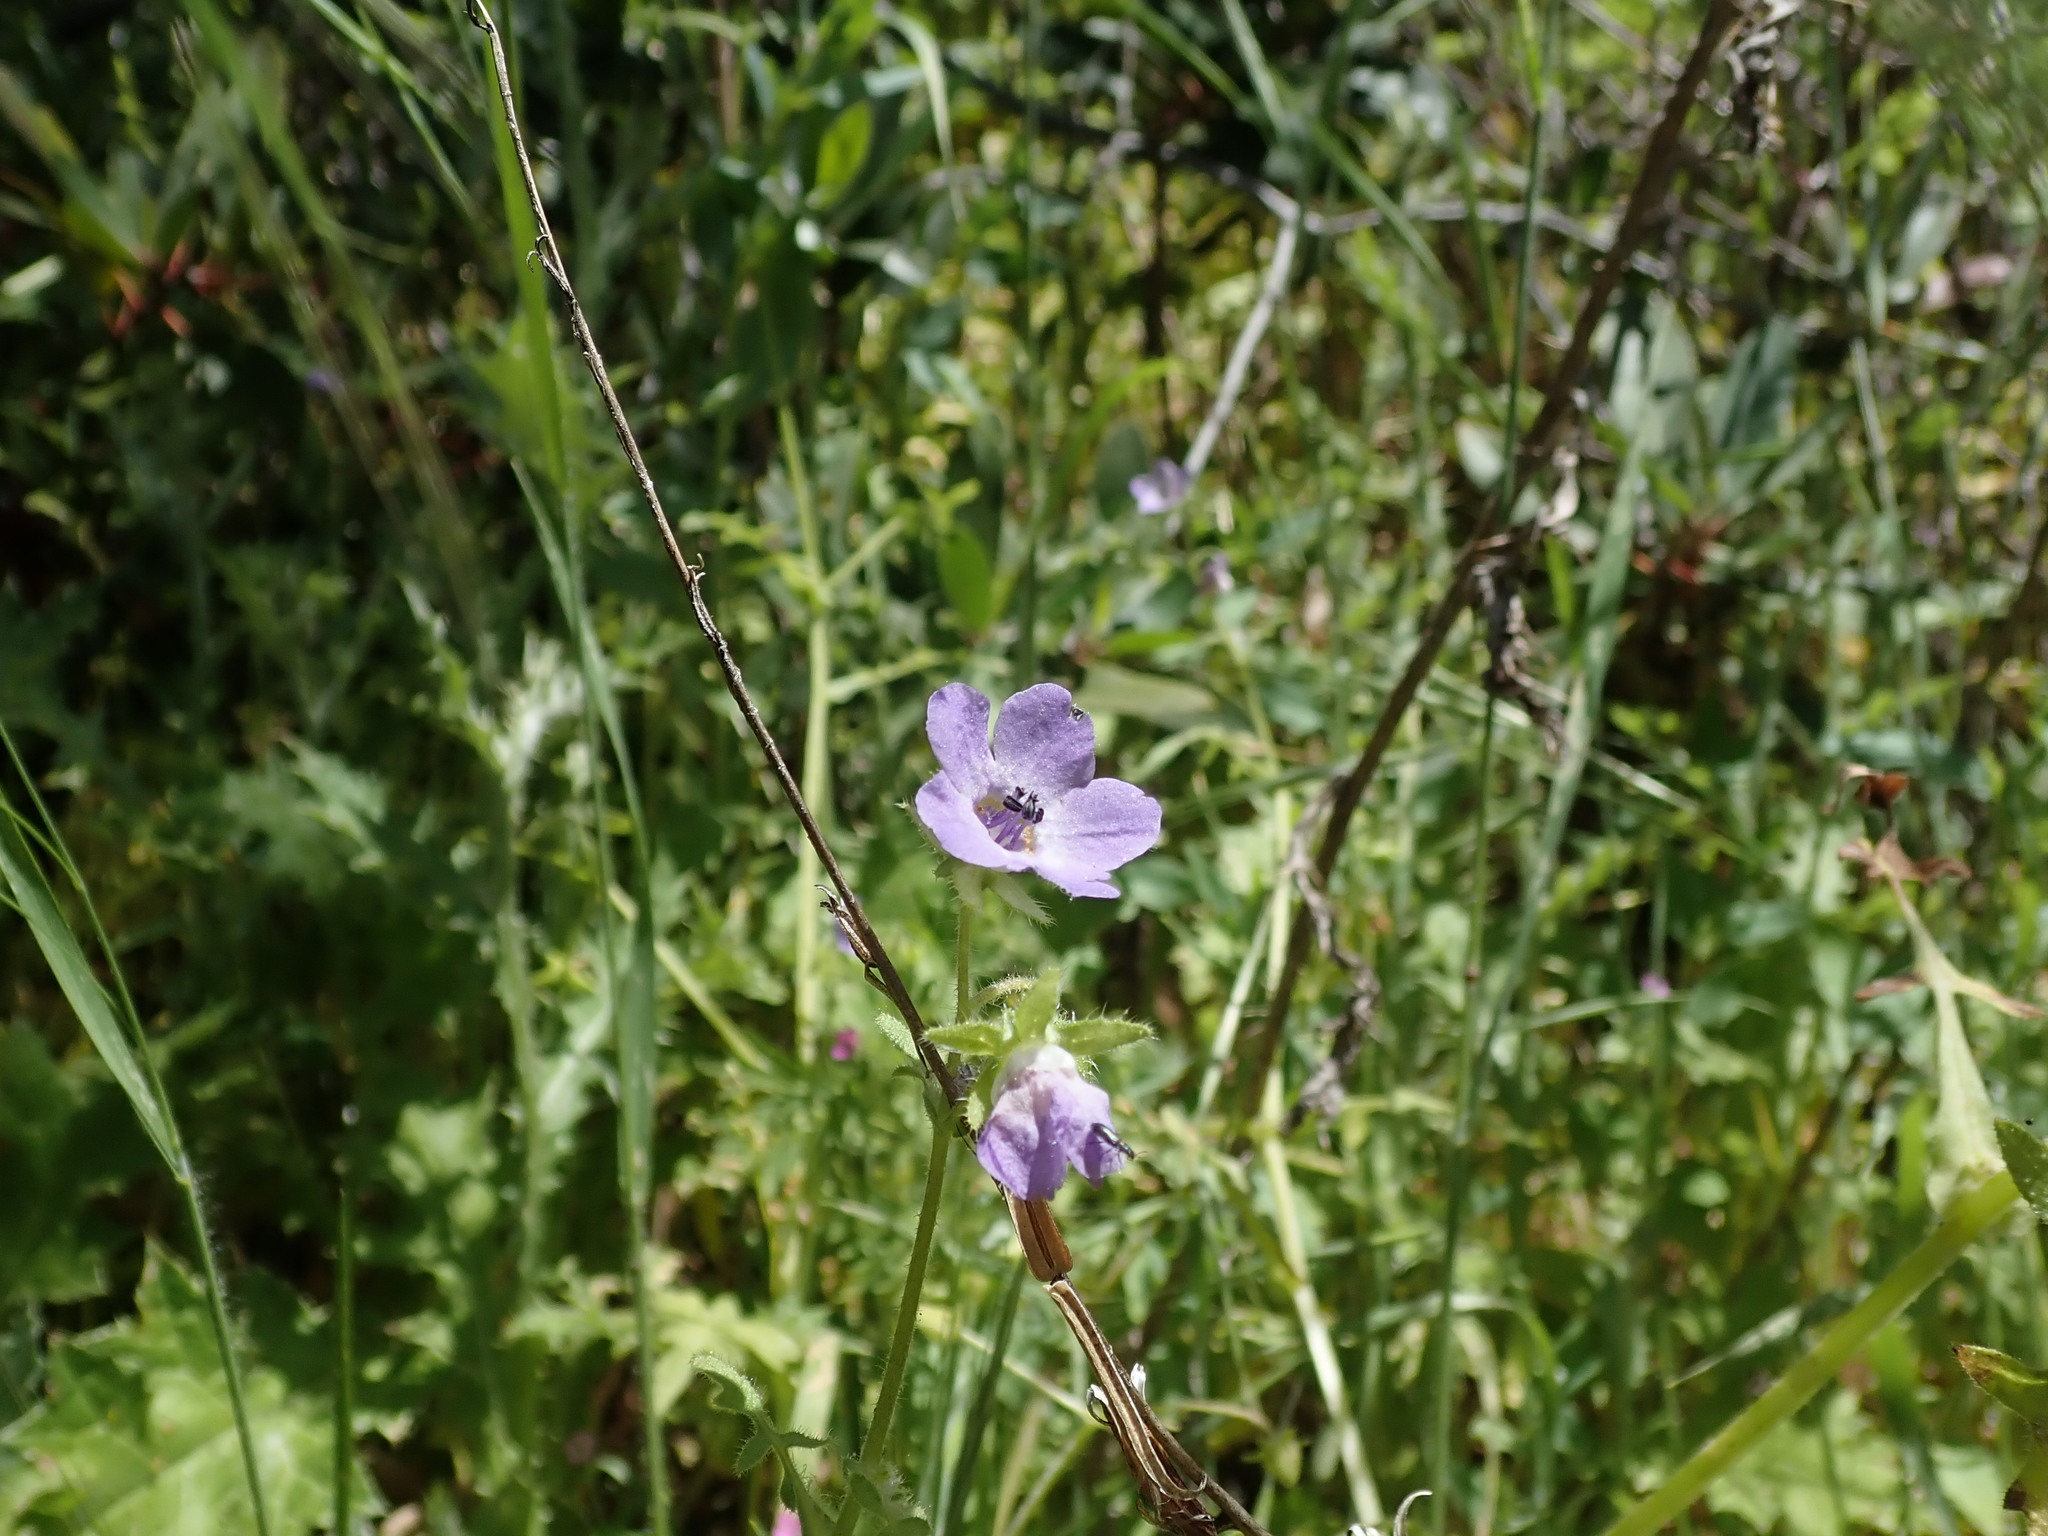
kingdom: Plantae
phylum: Tracheophyta
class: Magnoliopsida
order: Boraginales
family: Hydrophyllaceae
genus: Pholistoma
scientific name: Pholistoma auritum
